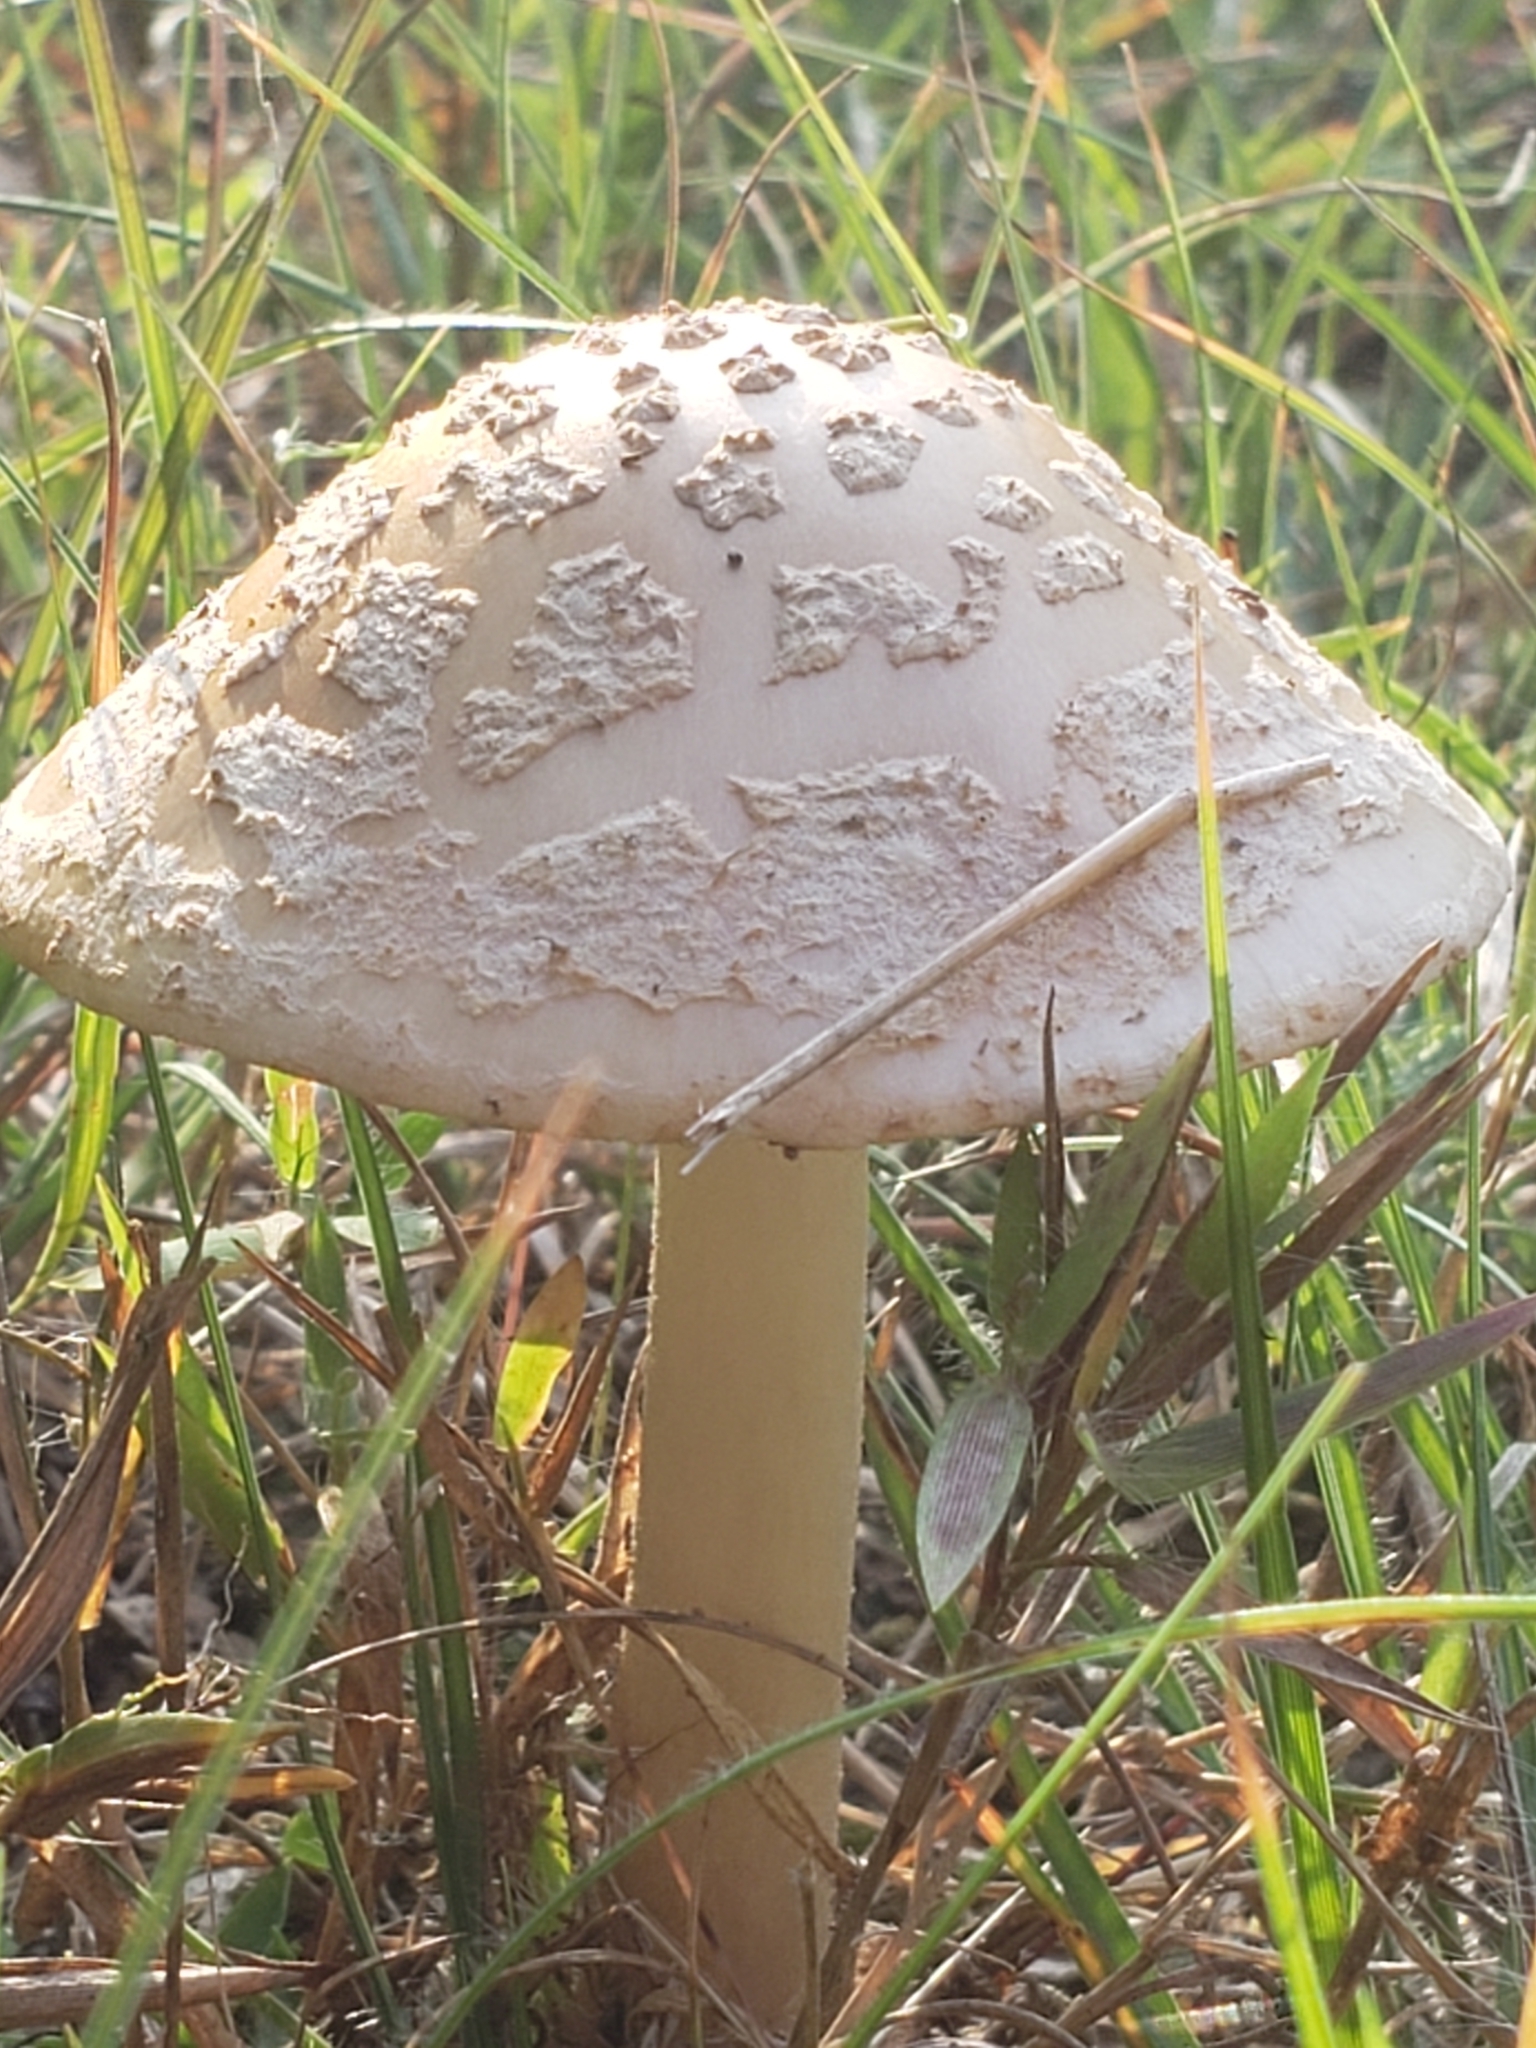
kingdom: Fungi
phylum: Basidiomycota
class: Agaricomycetes
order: Agaricales
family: Amanitaceae
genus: Amanita
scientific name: Amanita rubescens
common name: Blusher
